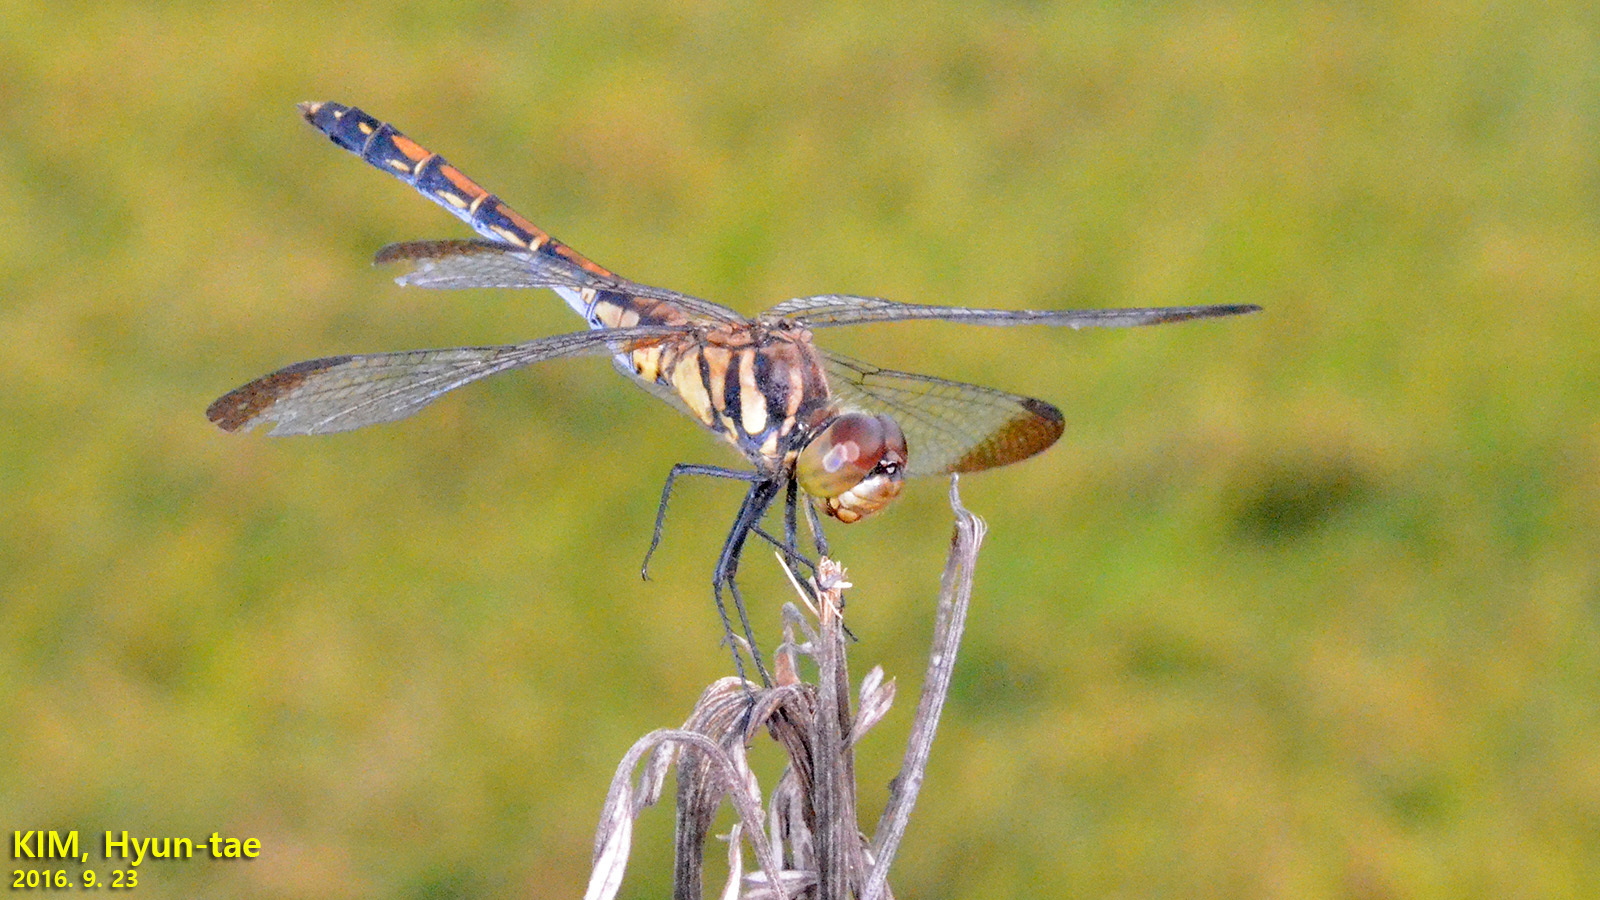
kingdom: Animalia
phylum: Arthropoda
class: Insecta
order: Odonata
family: Libellulidae
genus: Sympetrum
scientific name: Sympetrum infuscatum
